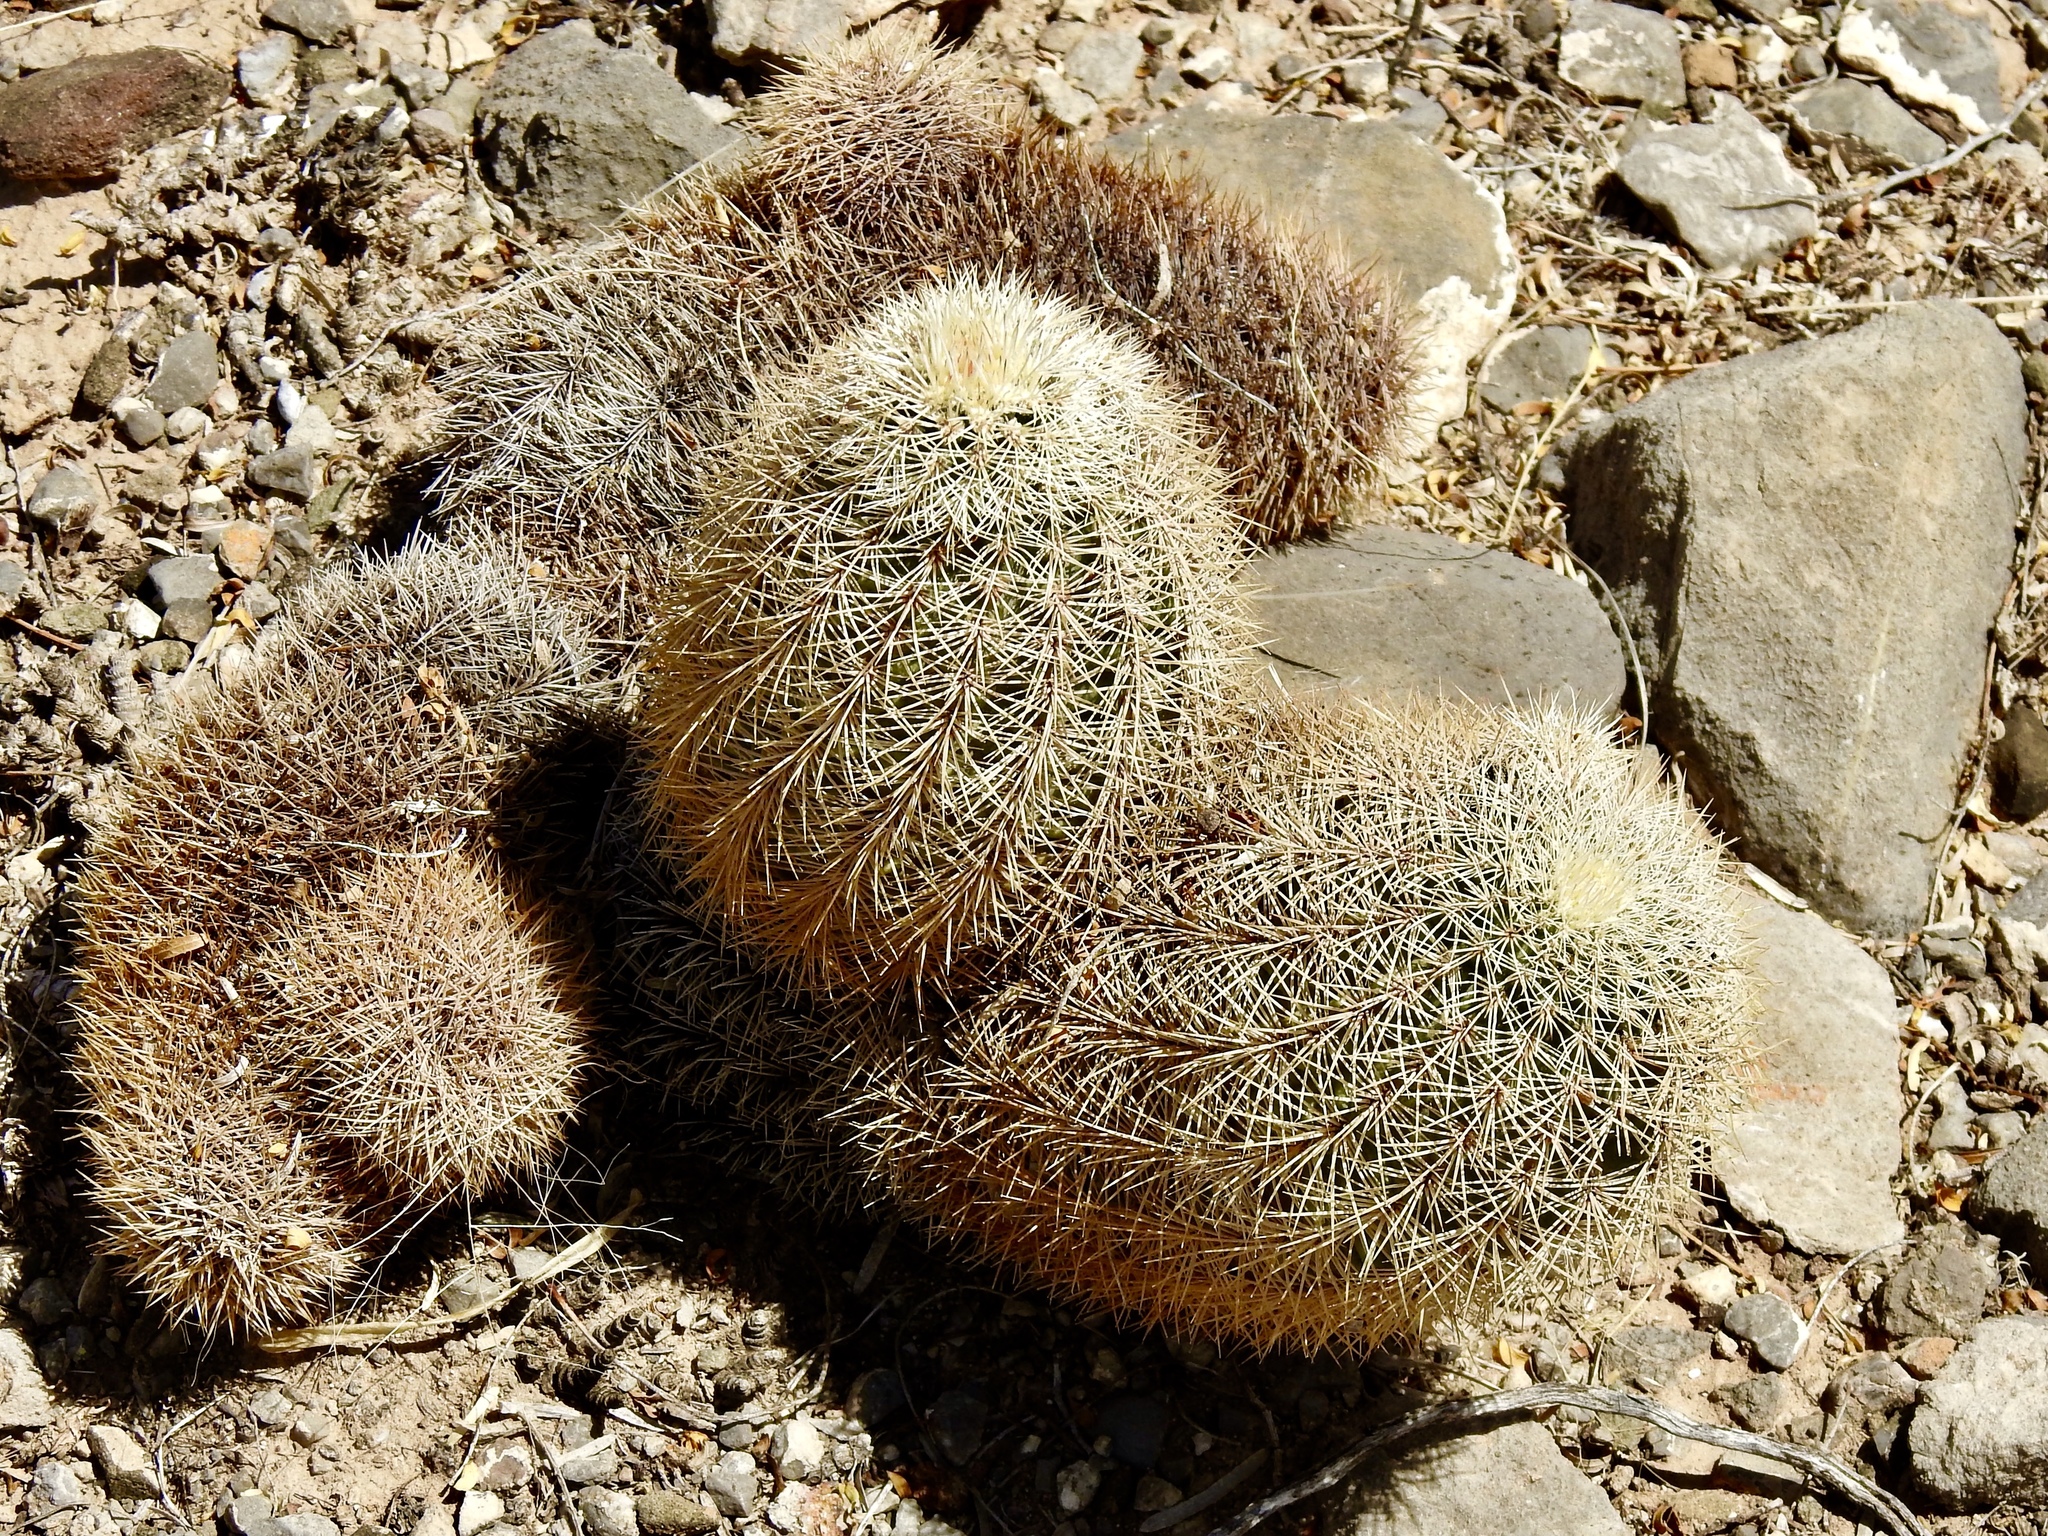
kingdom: Plantae
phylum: Tracheophyta
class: Magnoliopsida
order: Caryophyllales
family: Cactaceae
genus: Echinocereus
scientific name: Echinocereus dasyacanthus
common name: Spiny hedgehog cactus
